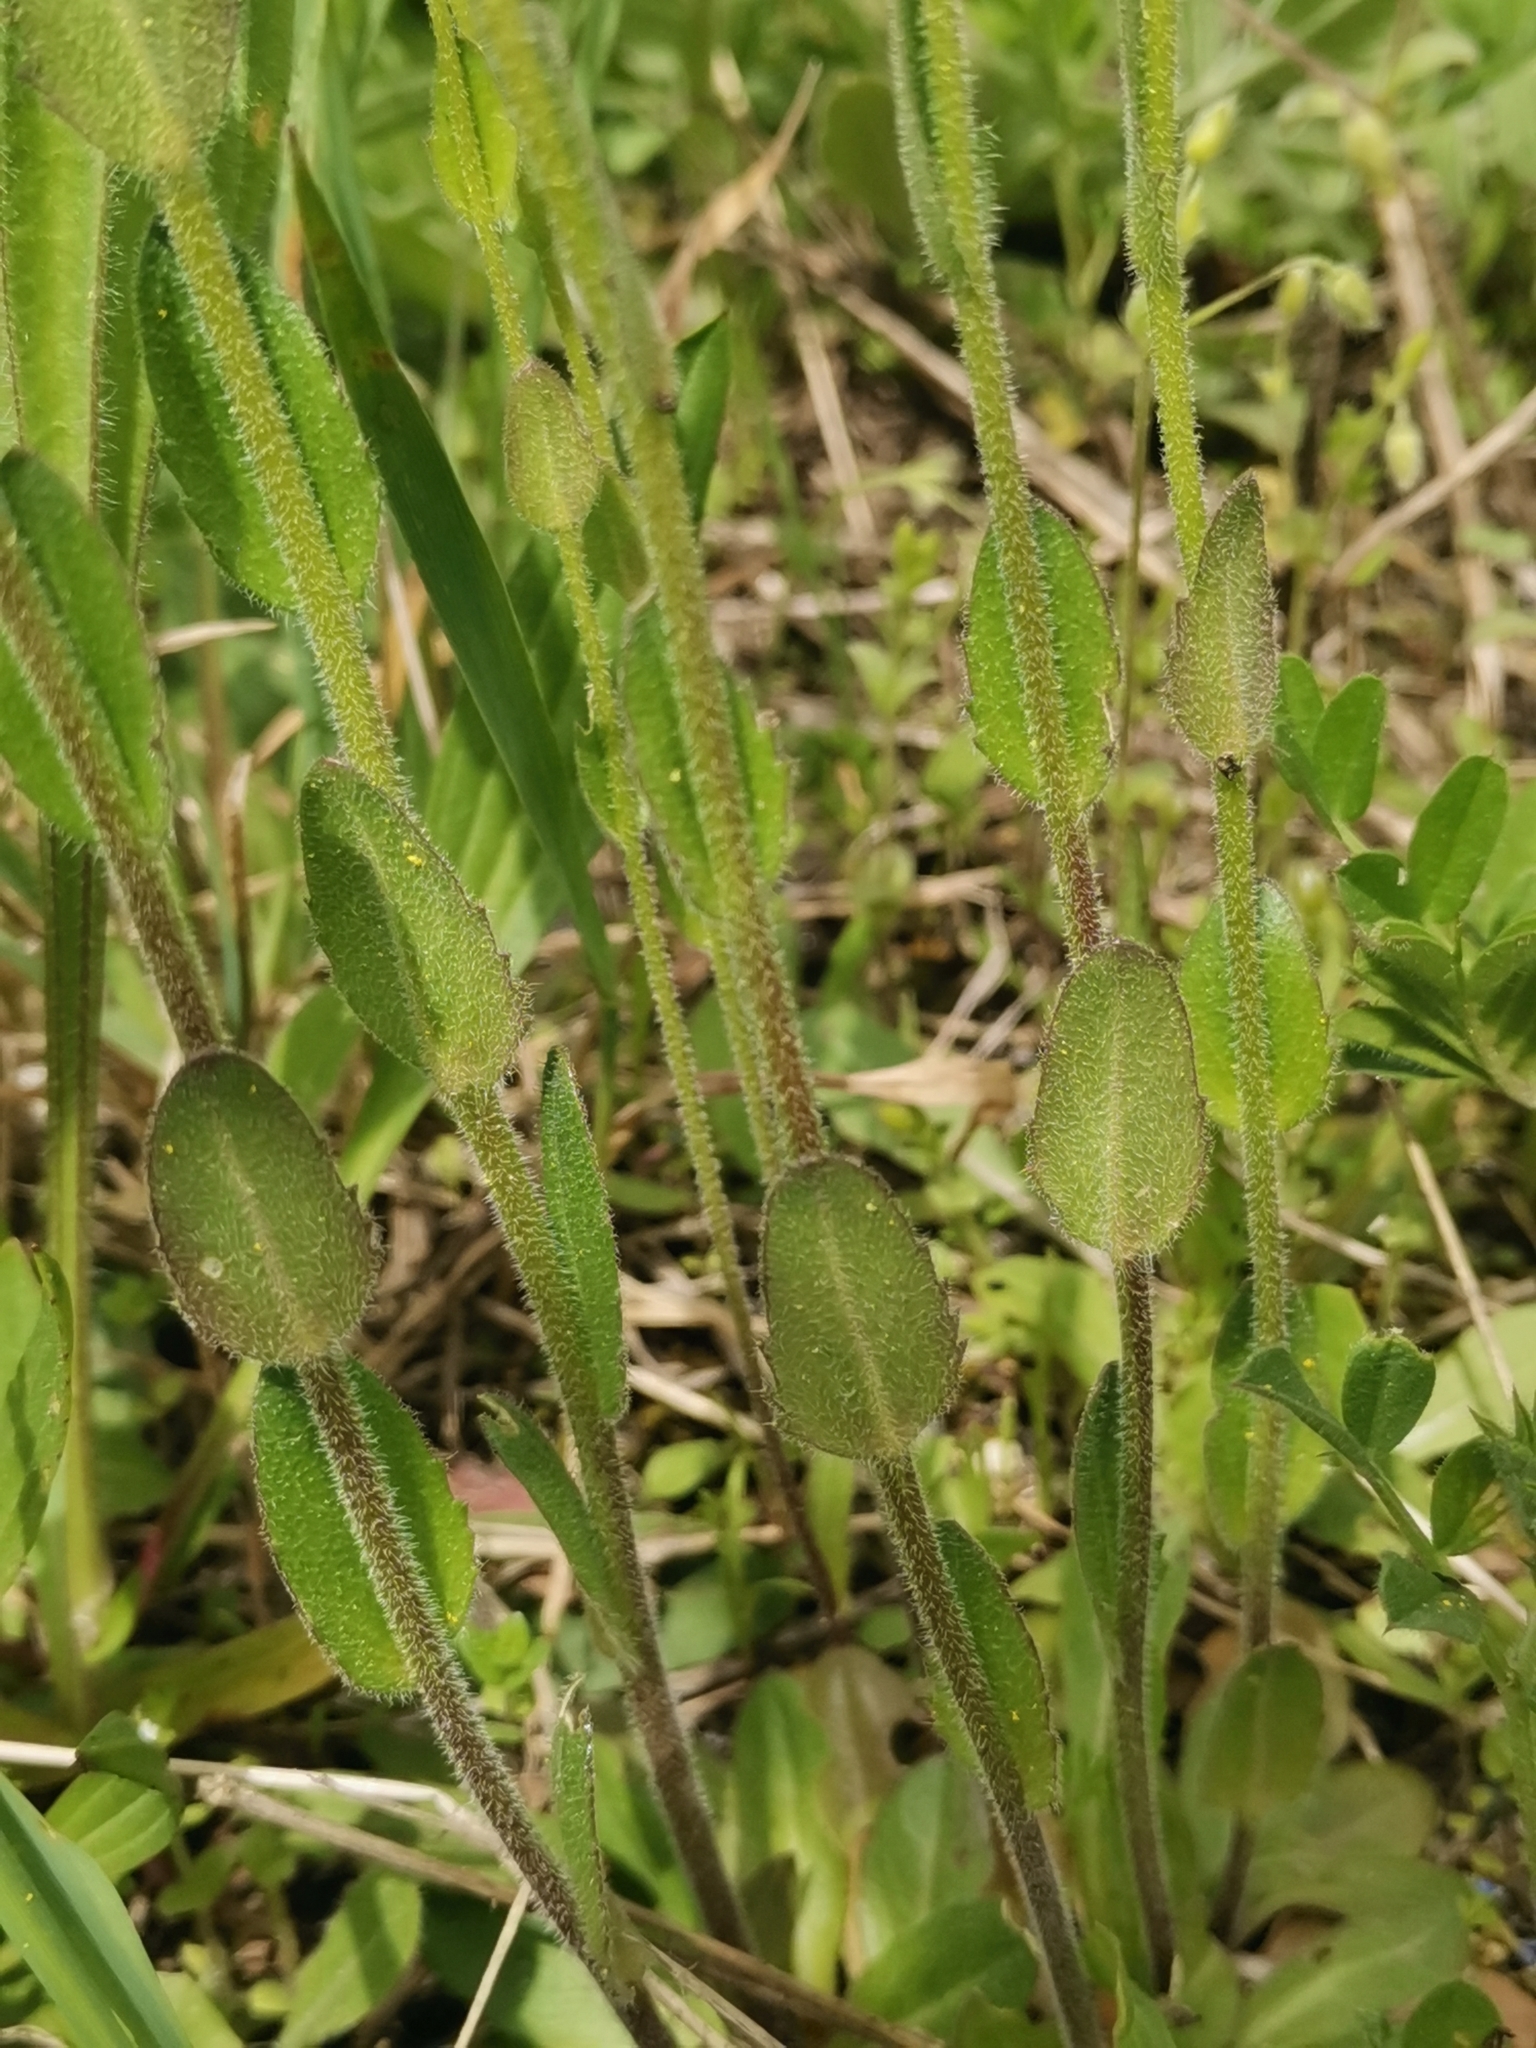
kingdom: Plantae
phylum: Tracheophyta
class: Magnoliopsida
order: Brassicales
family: Brassicaceae
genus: Arabis
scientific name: Arabis hirsuta
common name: Hairy rock-cress
